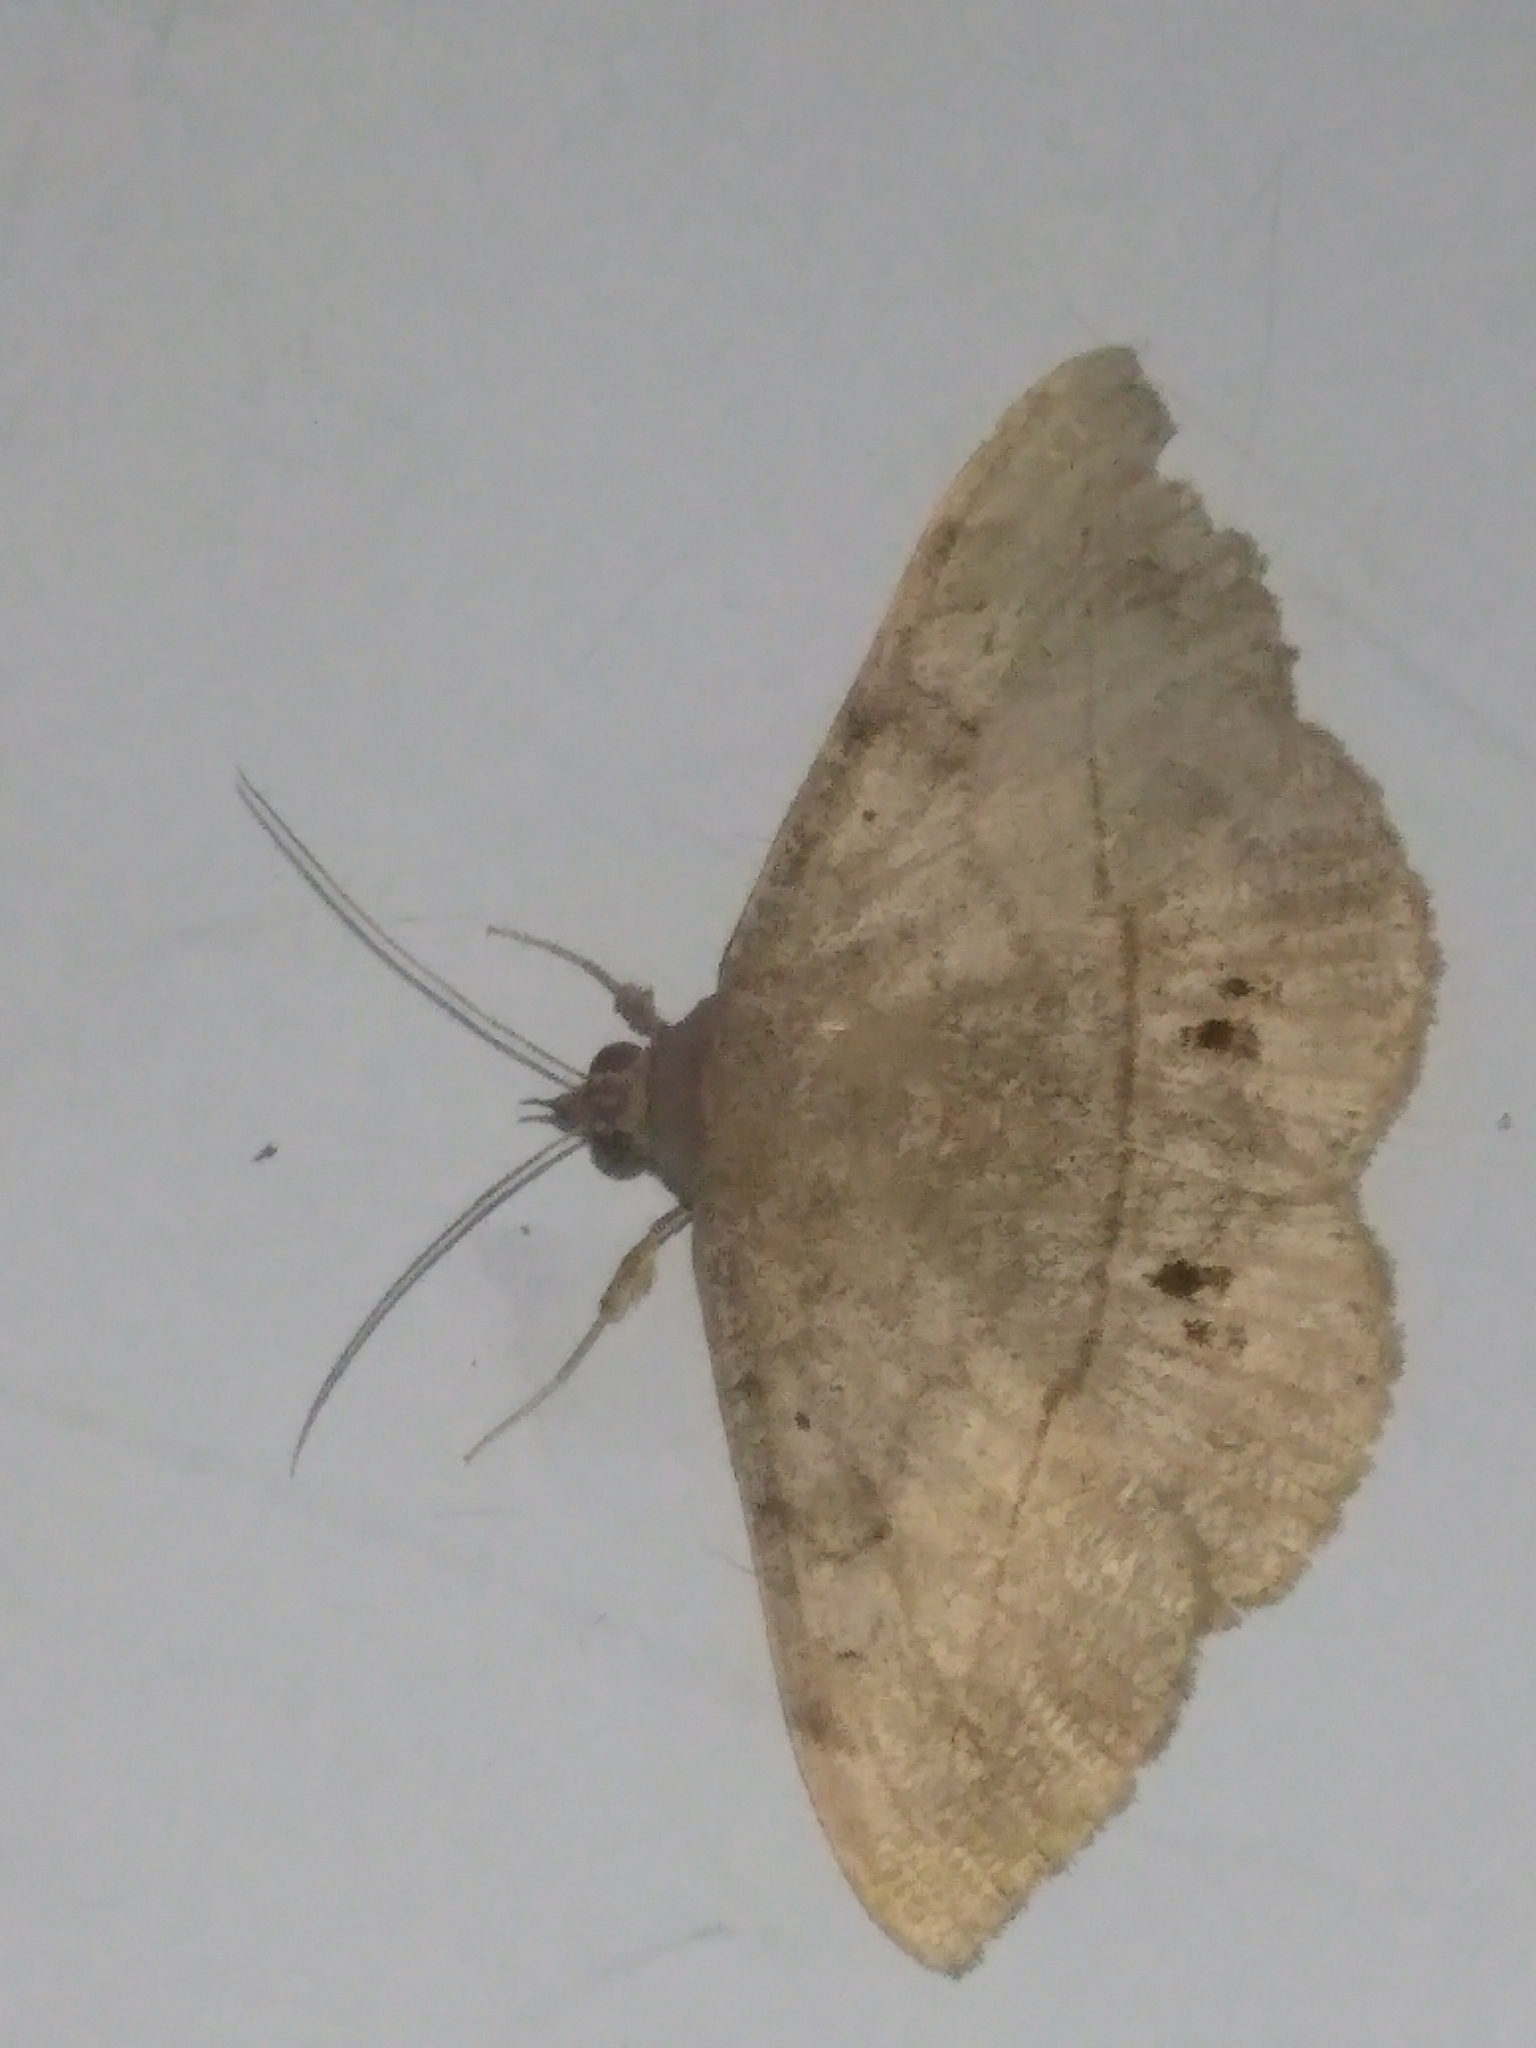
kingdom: Animalia
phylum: Arthropoda
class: Insecta
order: Lepidoptera
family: Erebidae
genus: Anticarsia
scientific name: Anticarsia gemmatalis
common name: Cutworm moth
